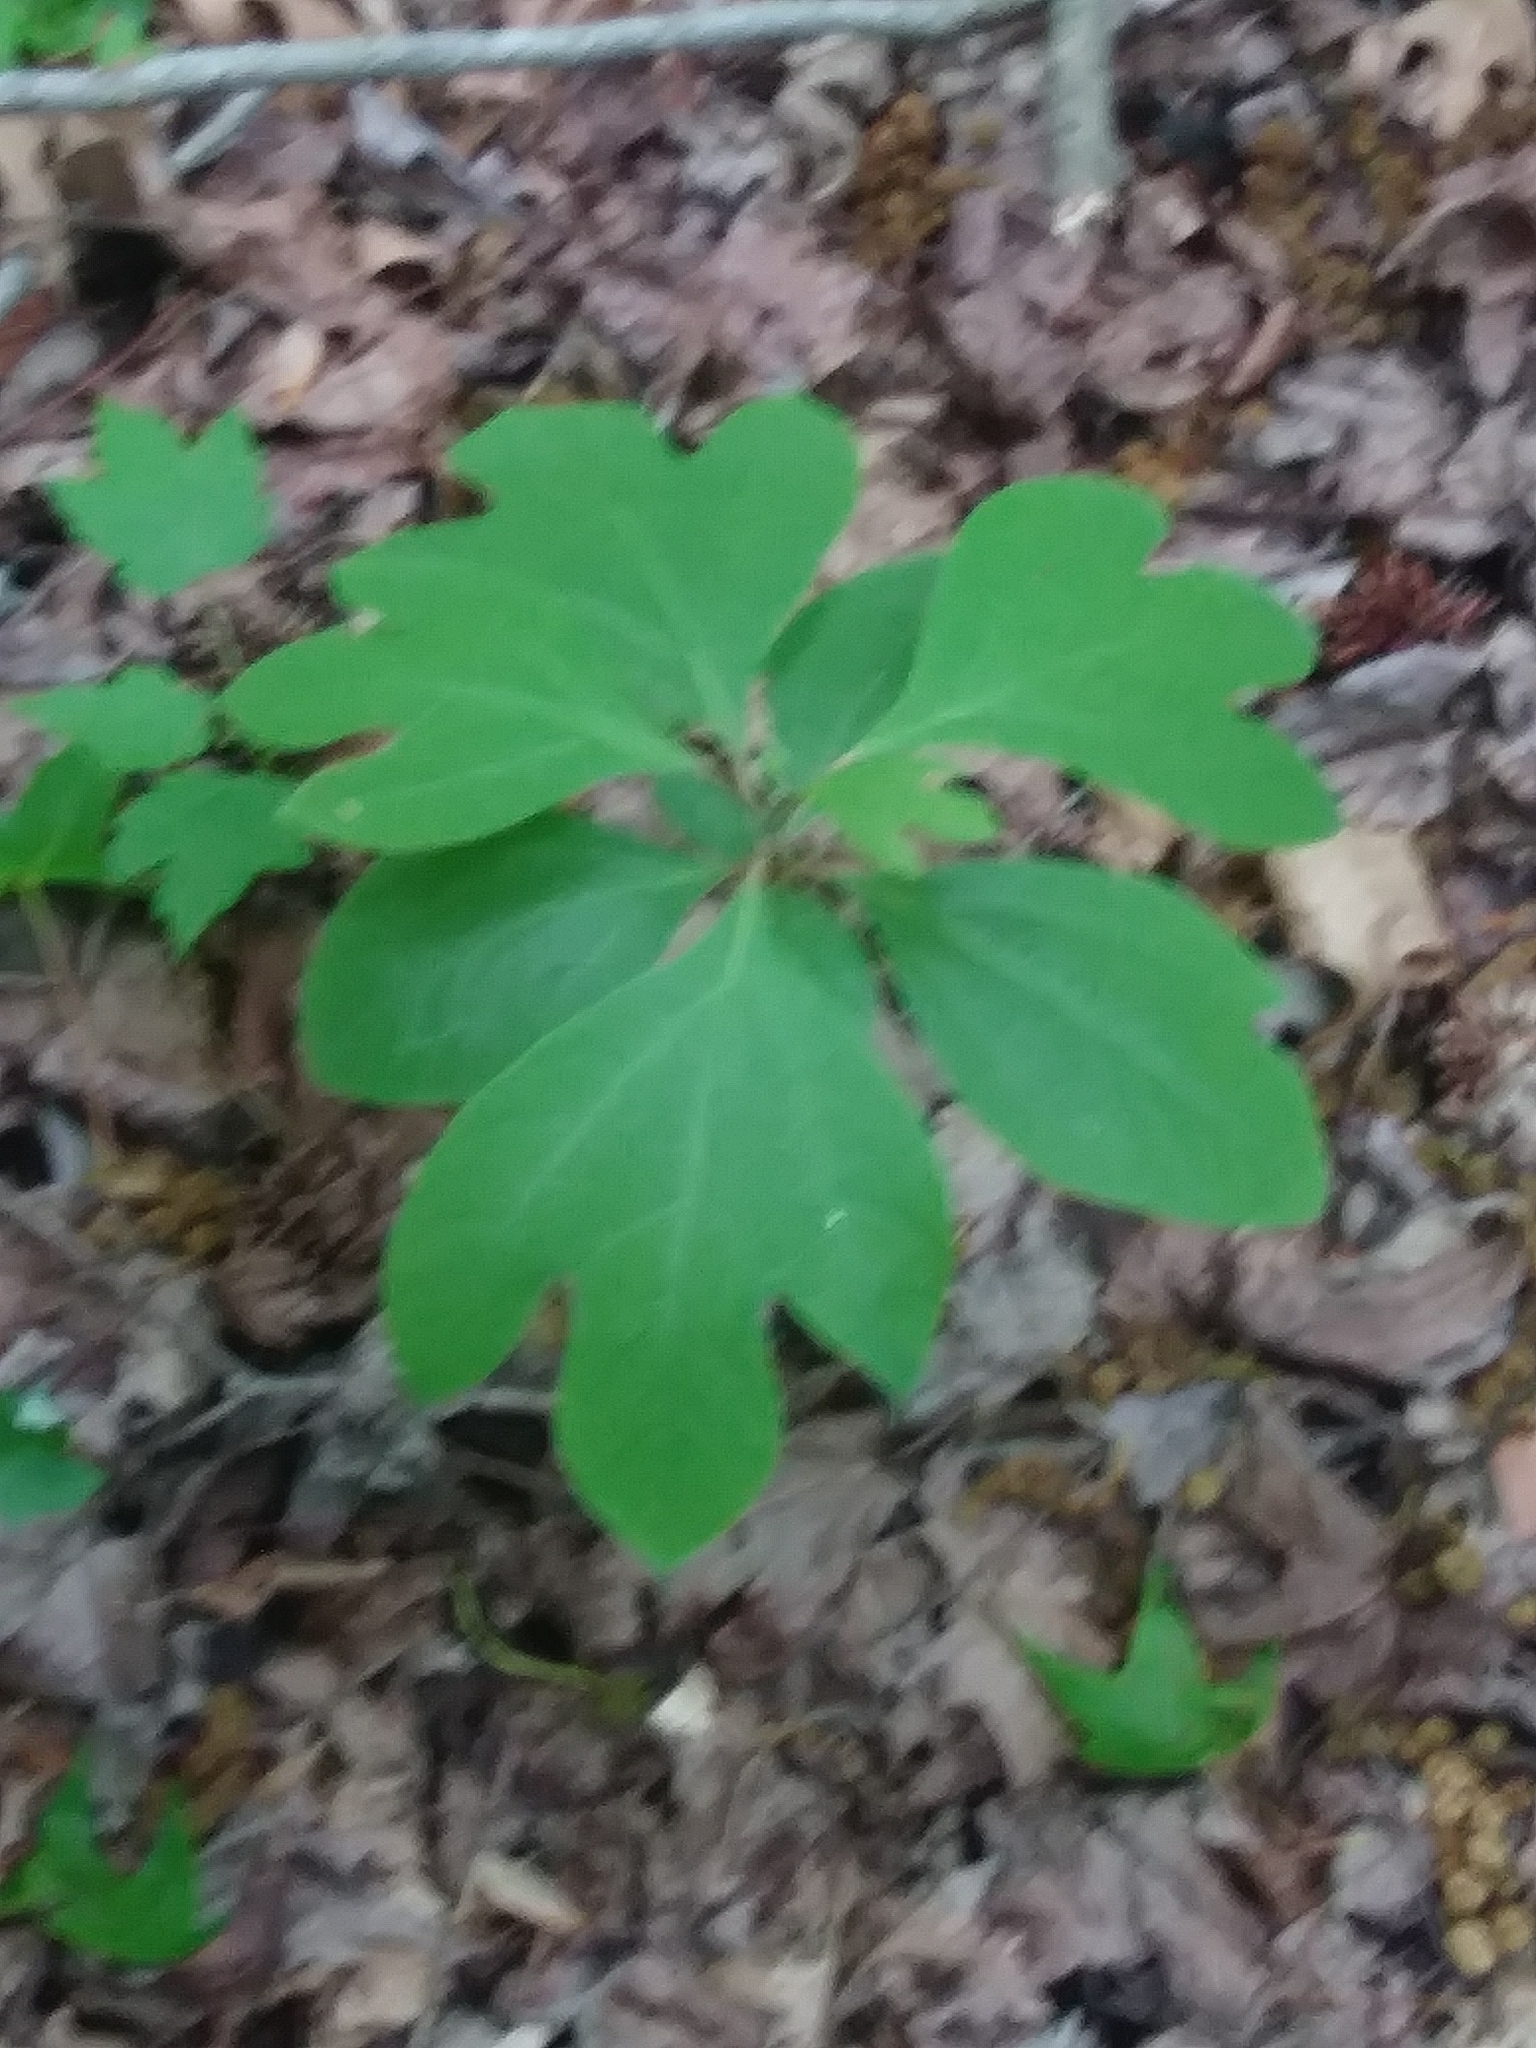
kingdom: Plantae
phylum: Tracheophyta
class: Magnoliopsida
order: Laurales
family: Lauraceae
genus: Sassafras
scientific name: Sassafras albidum
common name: Sassafras
